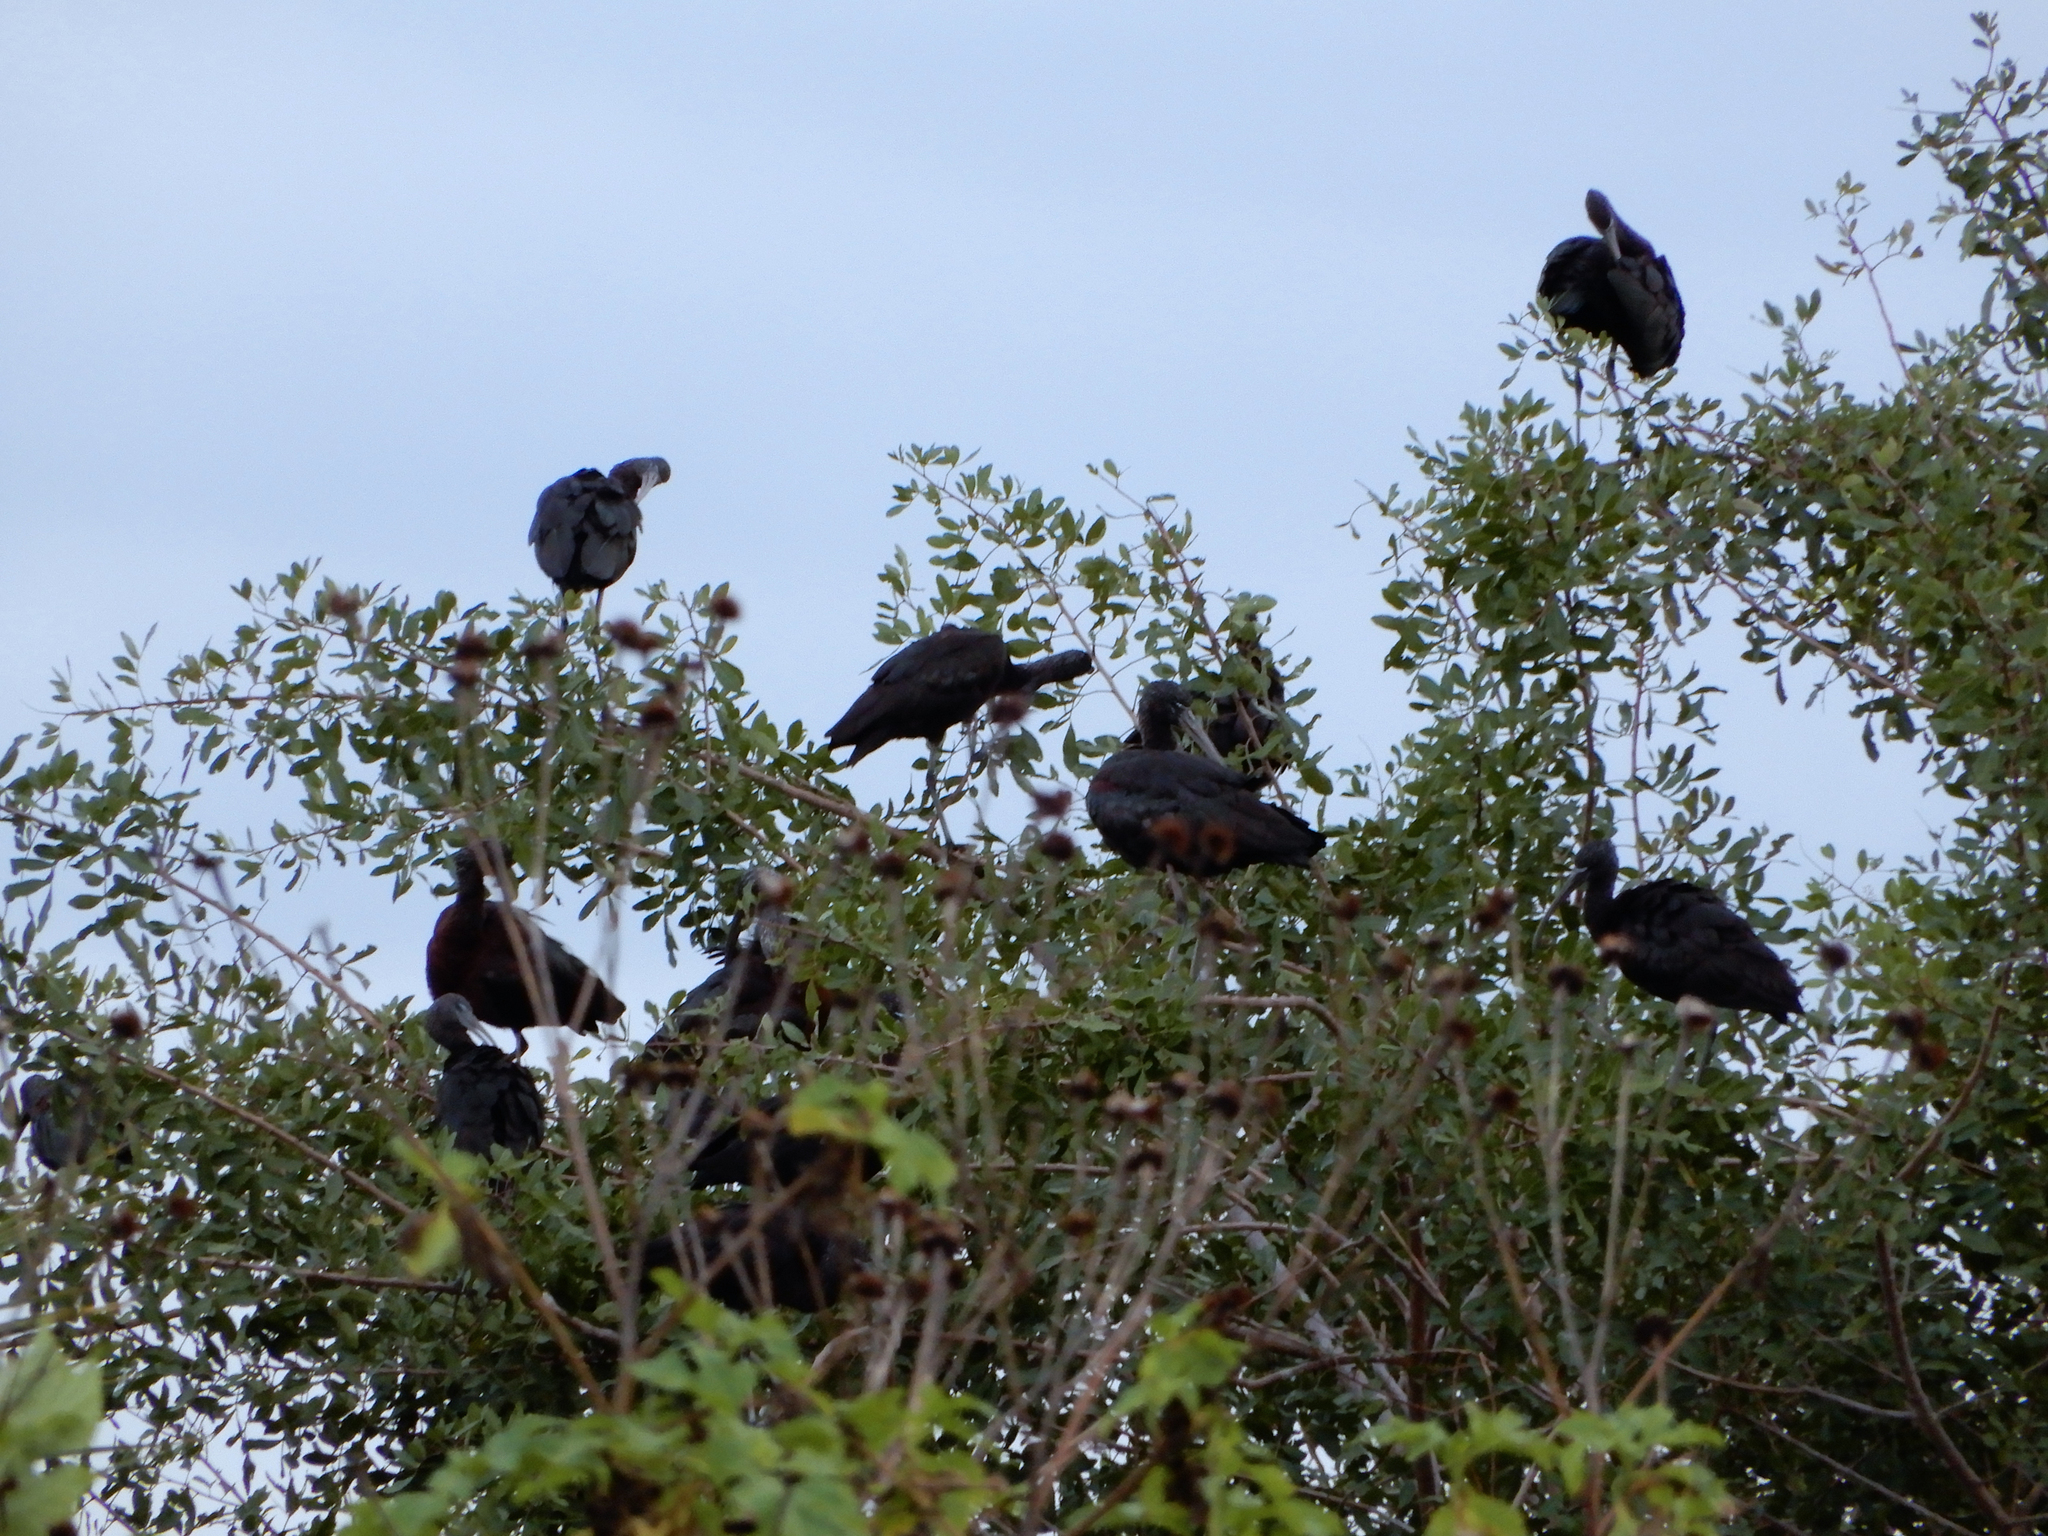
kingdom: Animalia
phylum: Chordata
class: Aves
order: Pelecaniformes
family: Threskiornithidae
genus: Plegadis
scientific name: Plegadis falcinellus
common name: Glossy ibis
